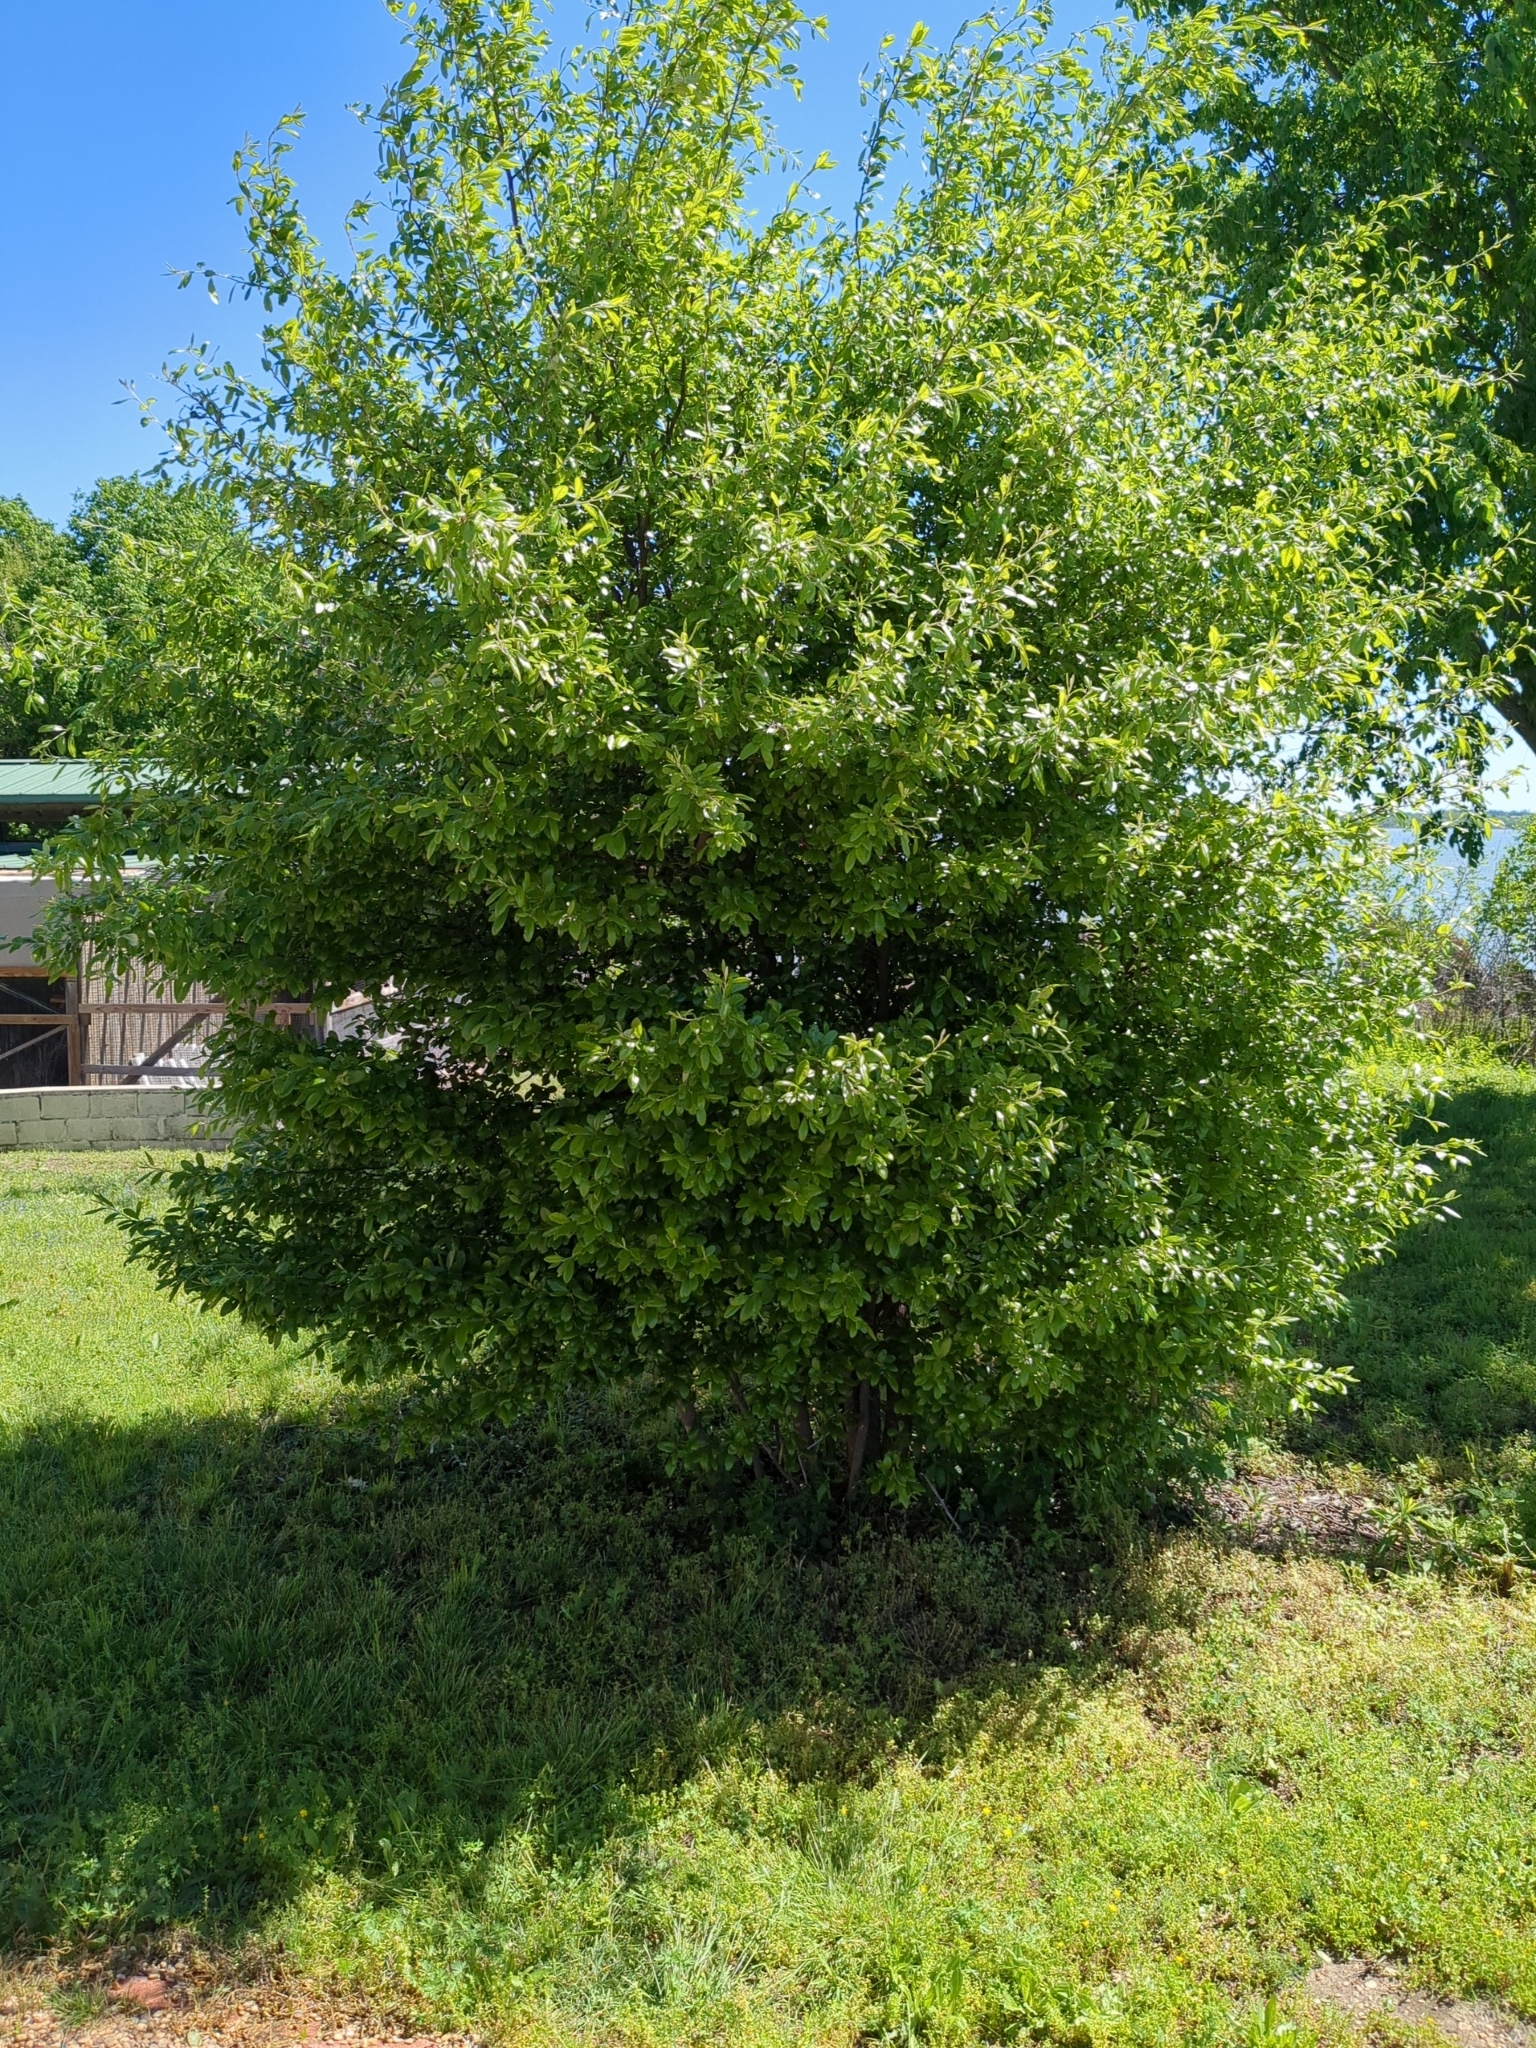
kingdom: Plantae
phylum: Tracheophyta
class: Magnoliopsida
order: Ericales
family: Sapotaceae
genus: Sideroxylon
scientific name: Sideroxylon lanuginosum
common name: Chittamwood
